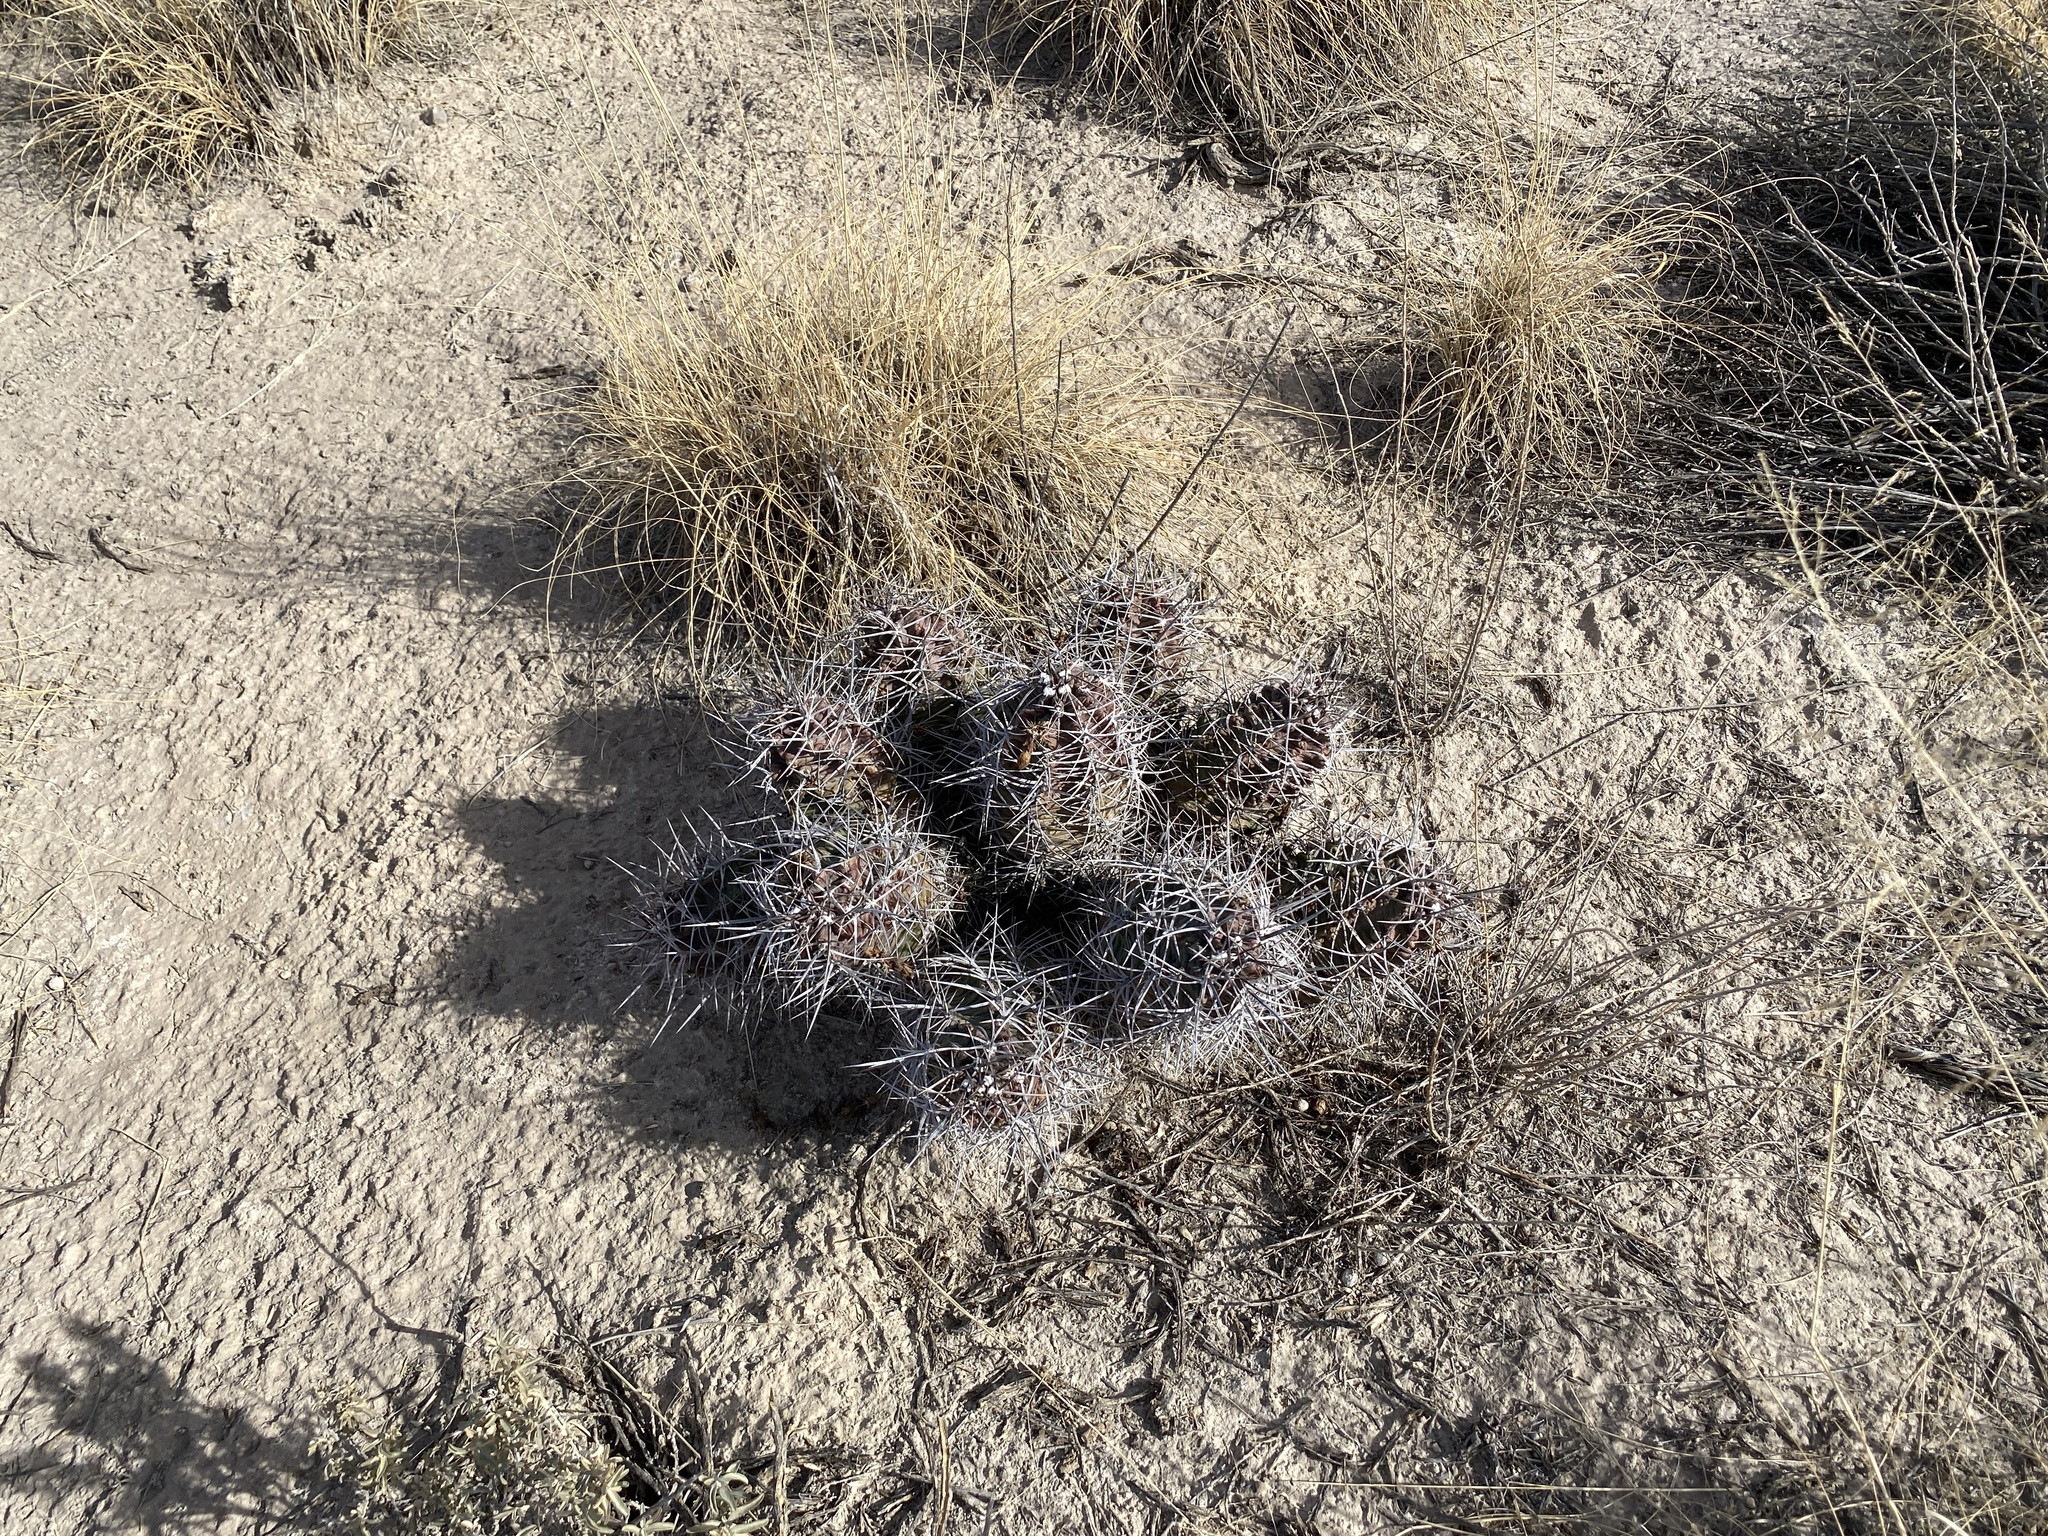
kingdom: Plantae
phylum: Tracheophyta
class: Magnoliopsida
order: Caryophyllales
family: Cactaceae
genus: Echinocereus
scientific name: Echinocereus triglochidiatus
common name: Claretcup hedgehog
